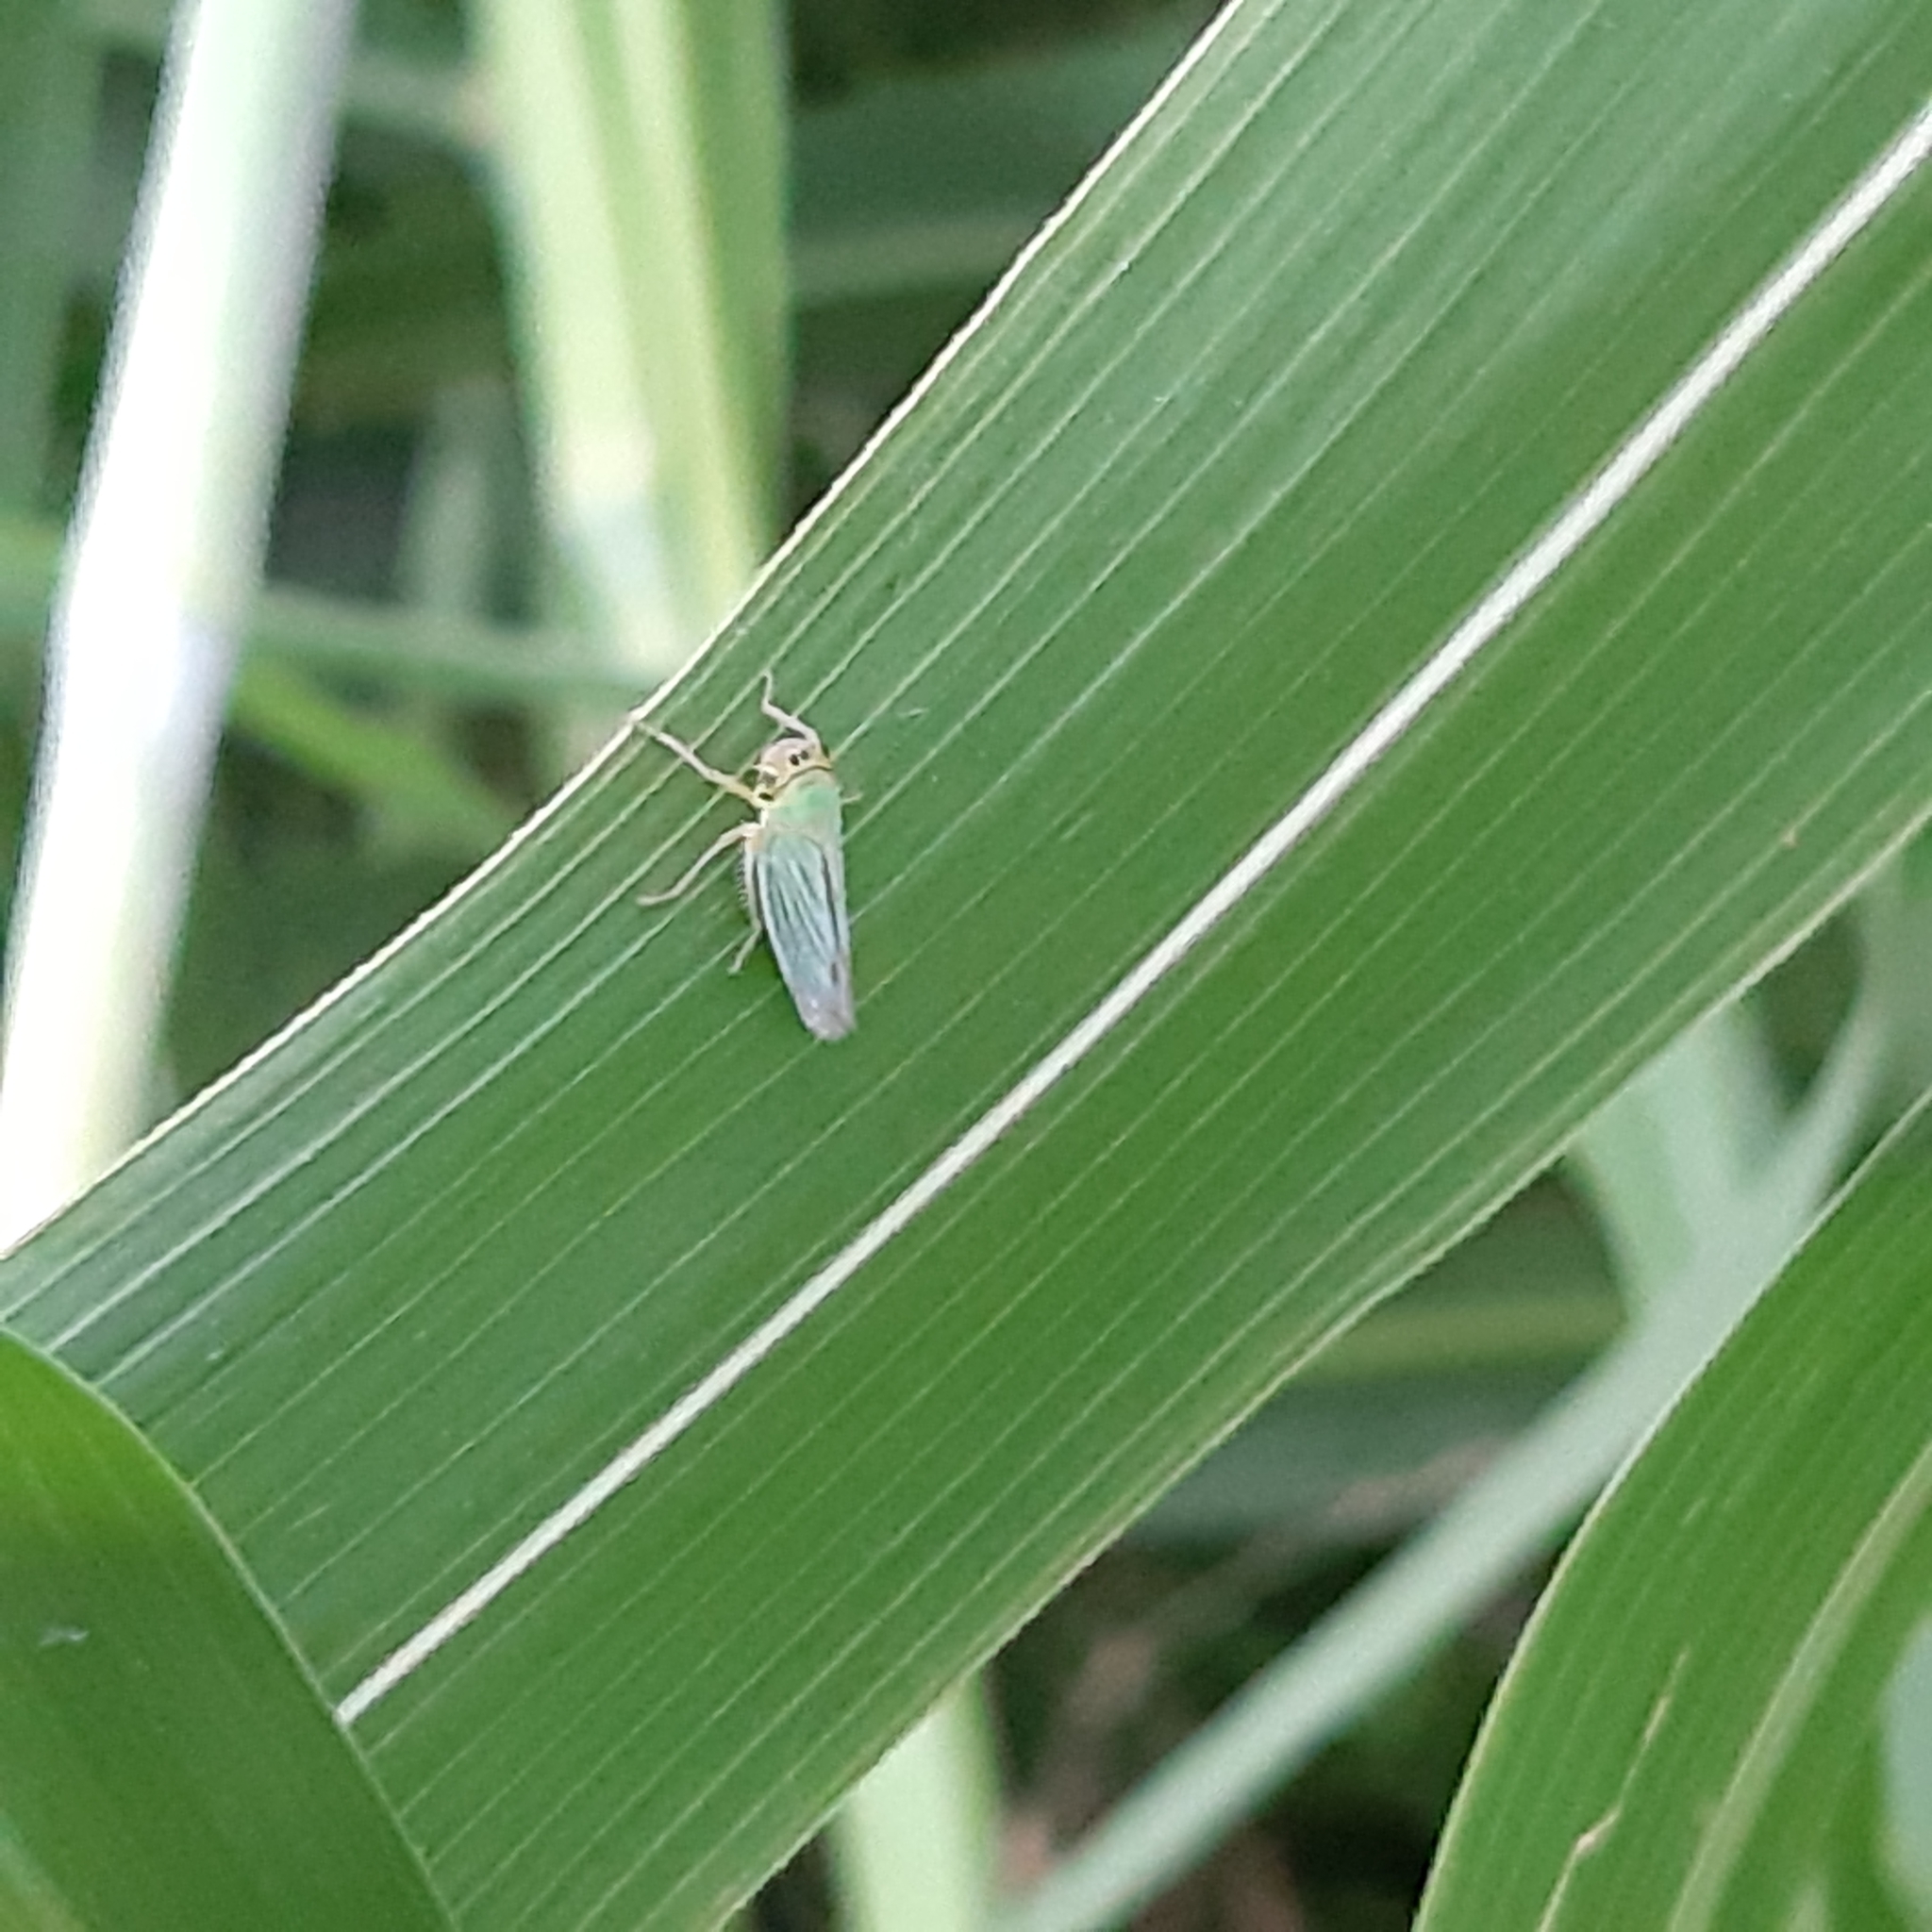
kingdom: Animalia
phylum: Arthropoda
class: Insecta
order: Hemiptera
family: Cicadellidae
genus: Cicadella
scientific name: Cicadella viridis
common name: Leafhopper
